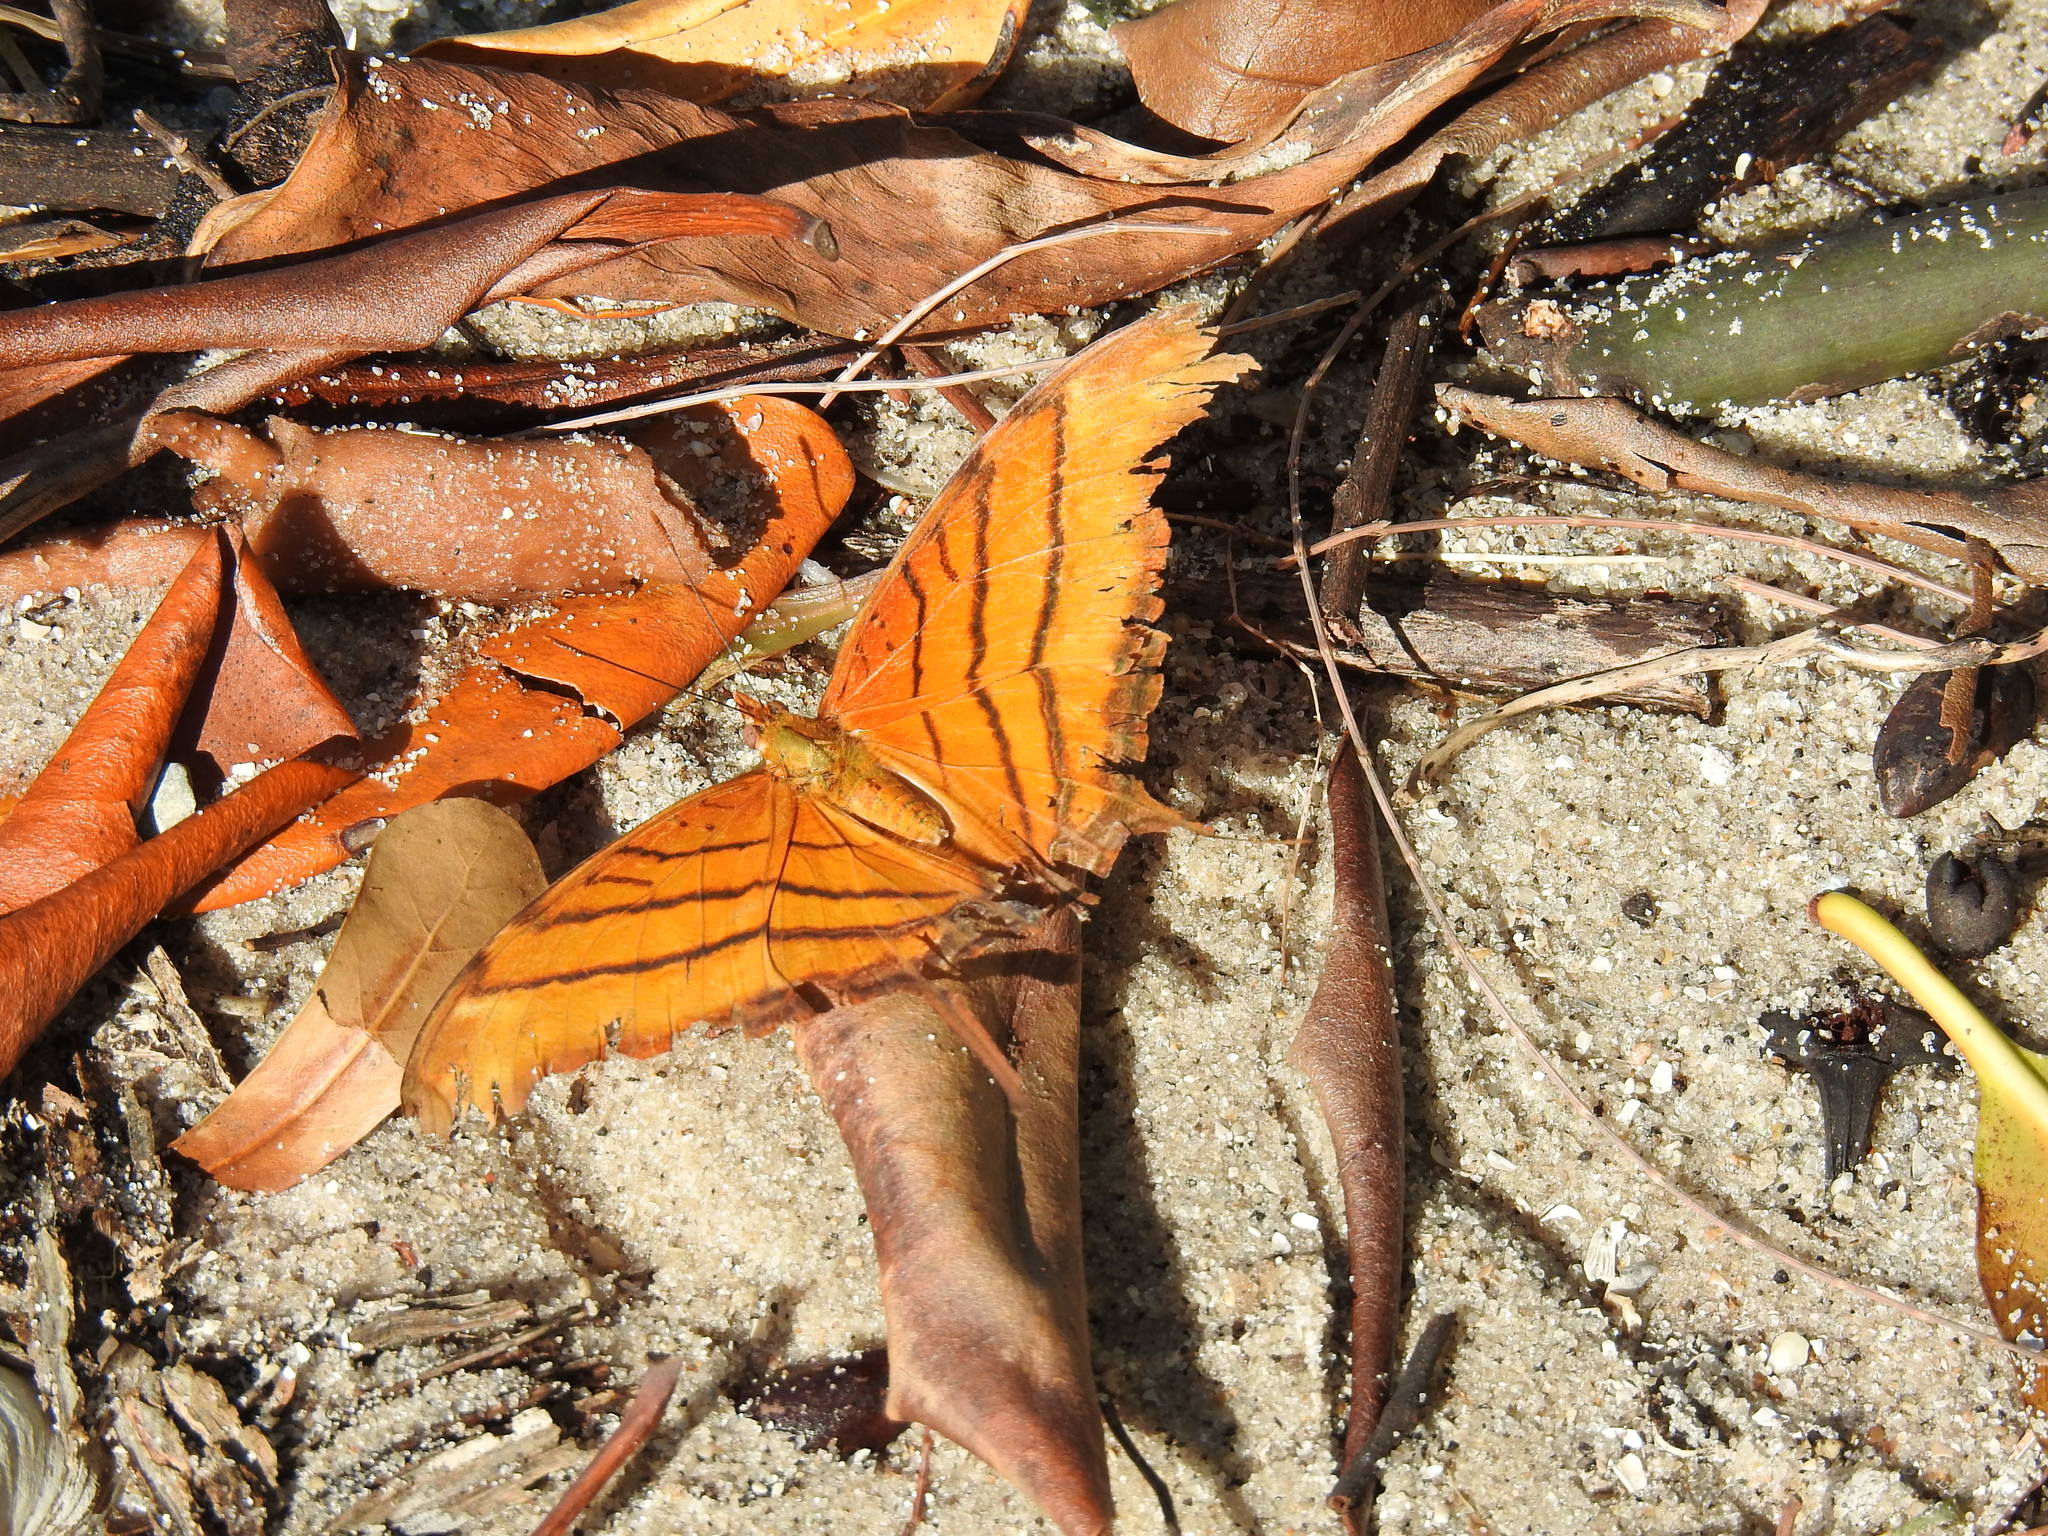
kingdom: Animalia
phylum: Arthropoda
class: Insecta
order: Lepidoptera
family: Nymphalidae
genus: Marpesia
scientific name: Marpesia petreus
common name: Red dagger wing
